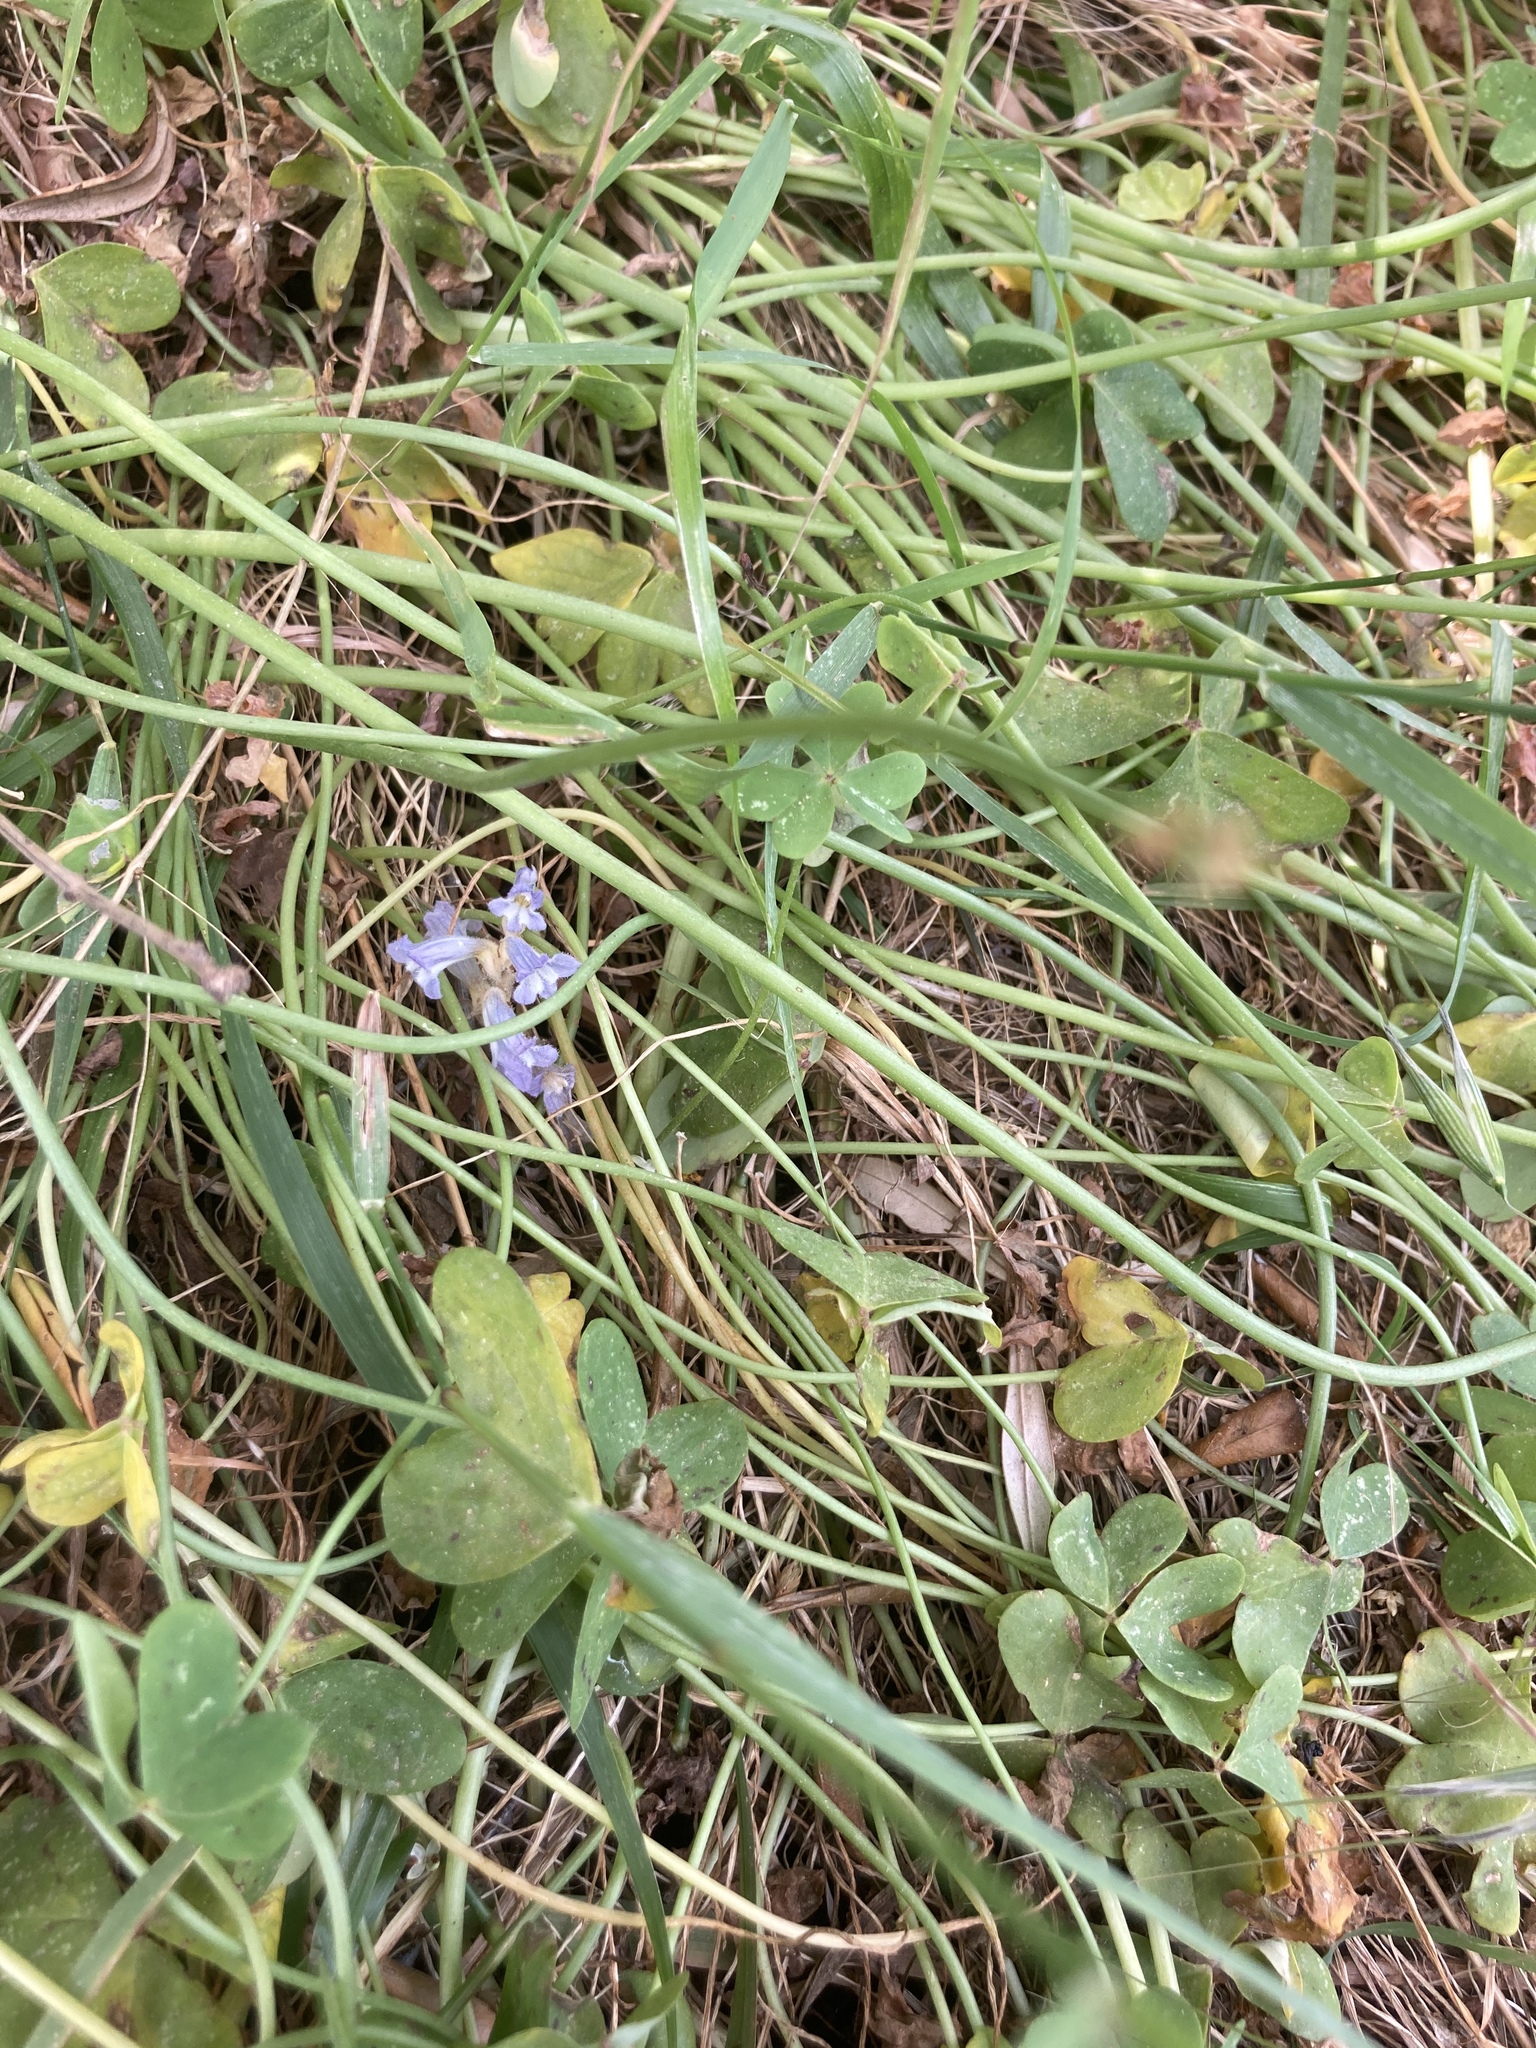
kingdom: Plantae
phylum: Tracheophyta
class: Magnoliopsida
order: Oxalidales
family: Oxalidaceae
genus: Oxalis
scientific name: Oxalis pes-caprae
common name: Bermuda-buttercup
